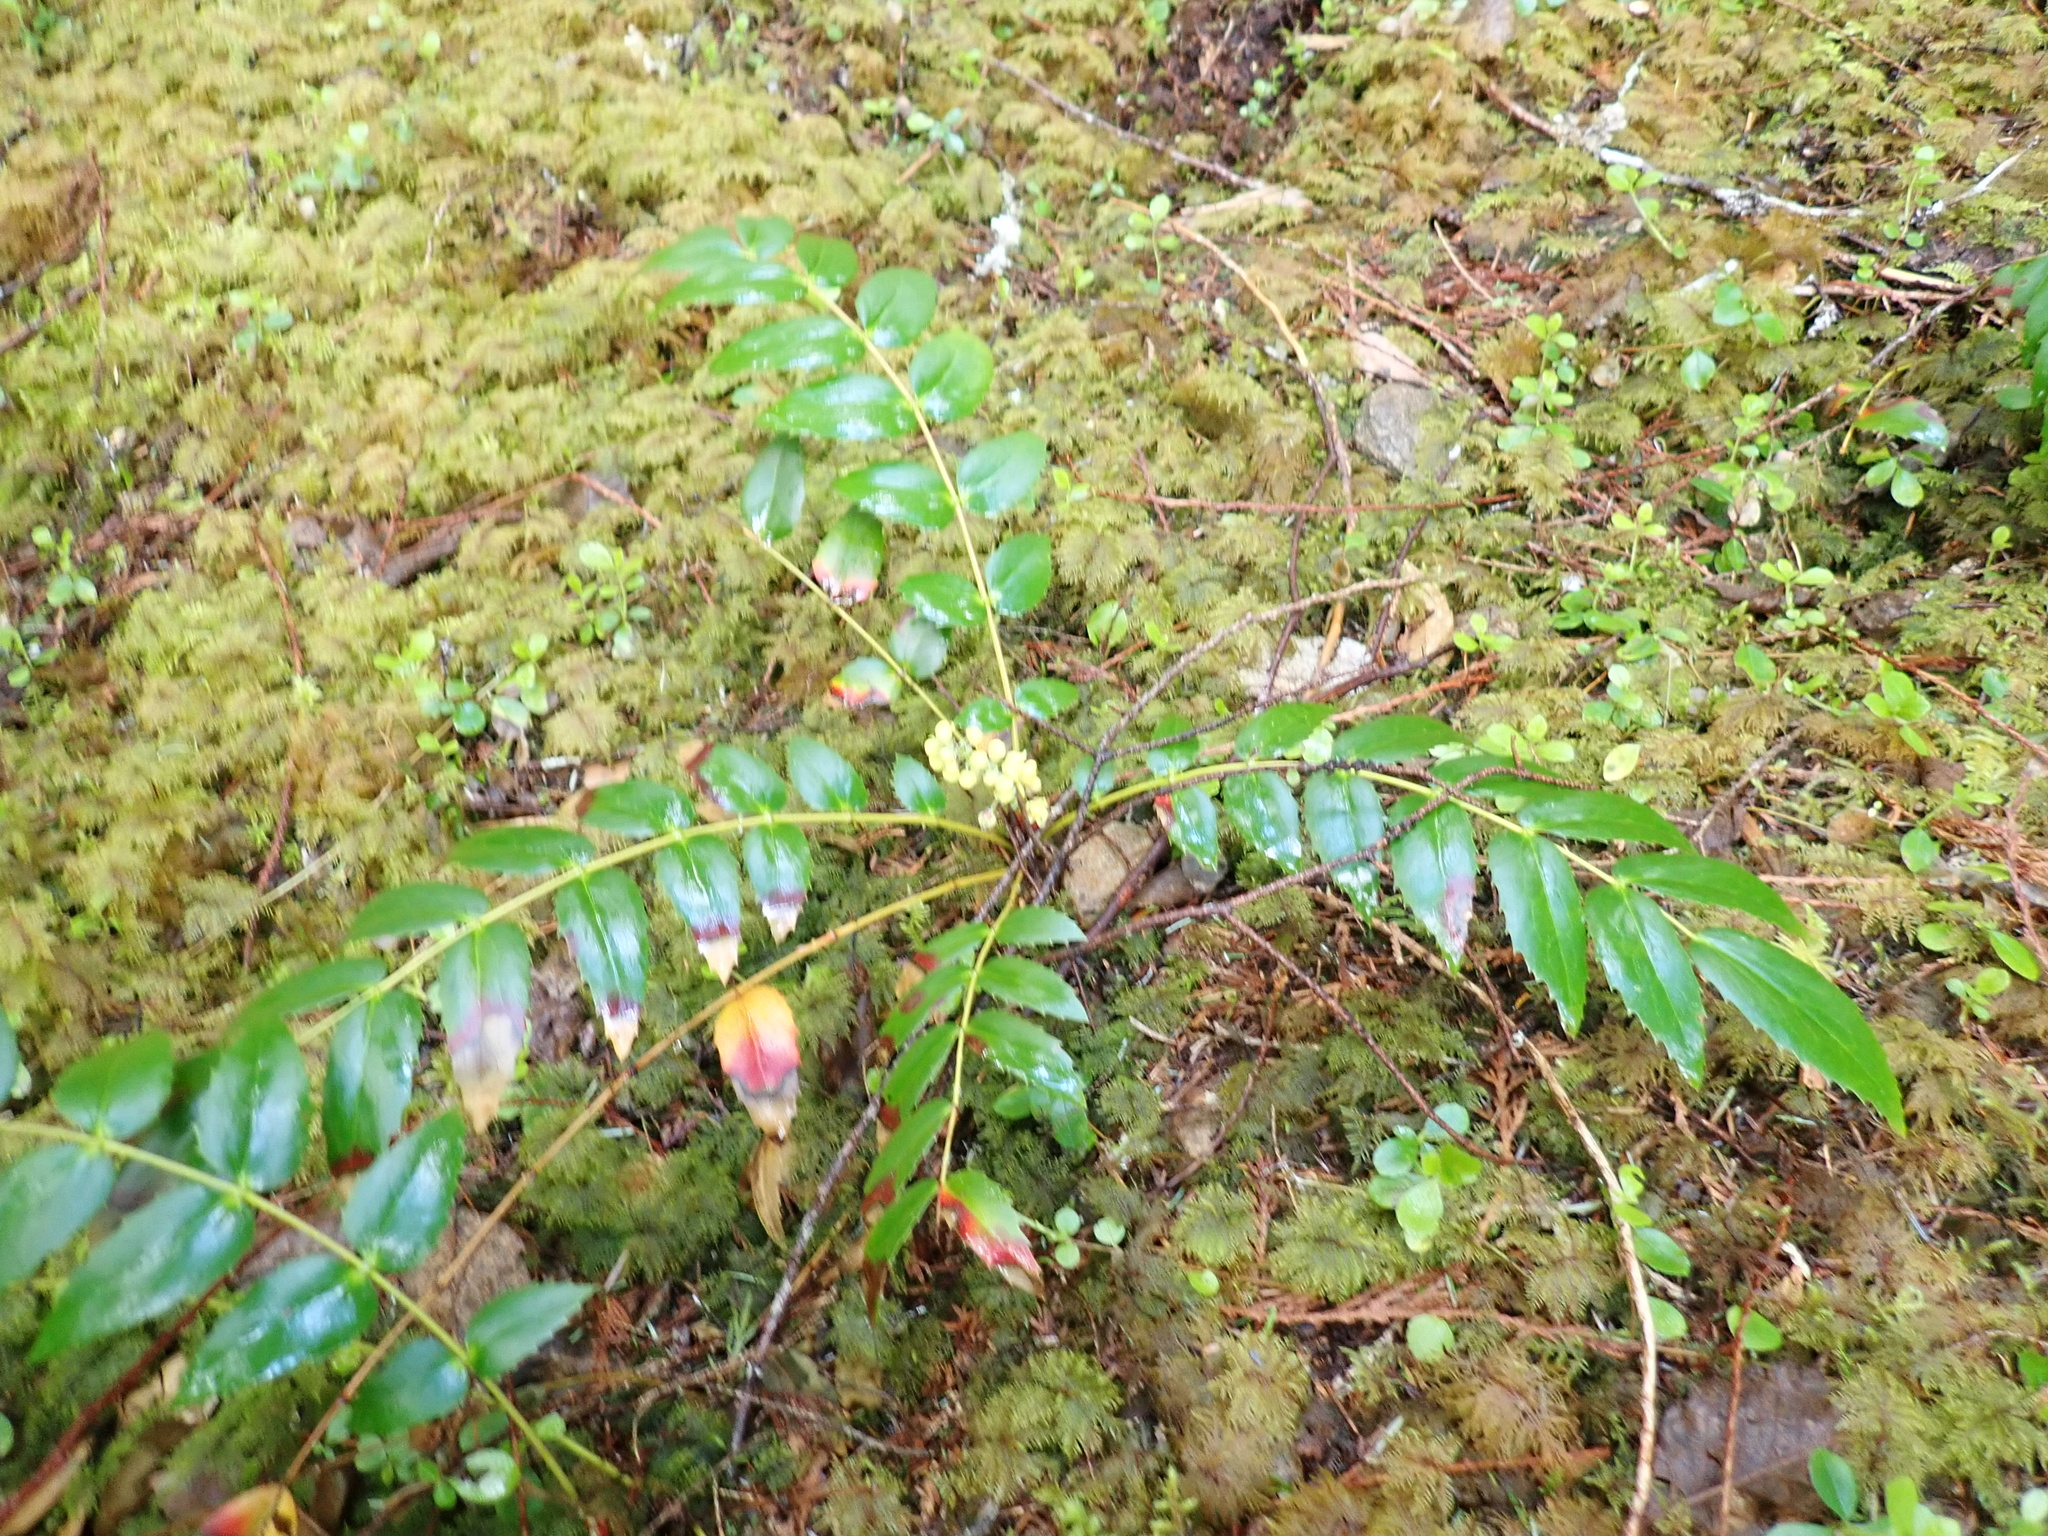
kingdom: Plantae
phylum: Tracheophyta
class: Magnoliopsida
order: Ranunculales
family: Berberidaceae
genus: Mahonia
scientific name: Mahonia nervosa
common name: Cascade oregon-grape
